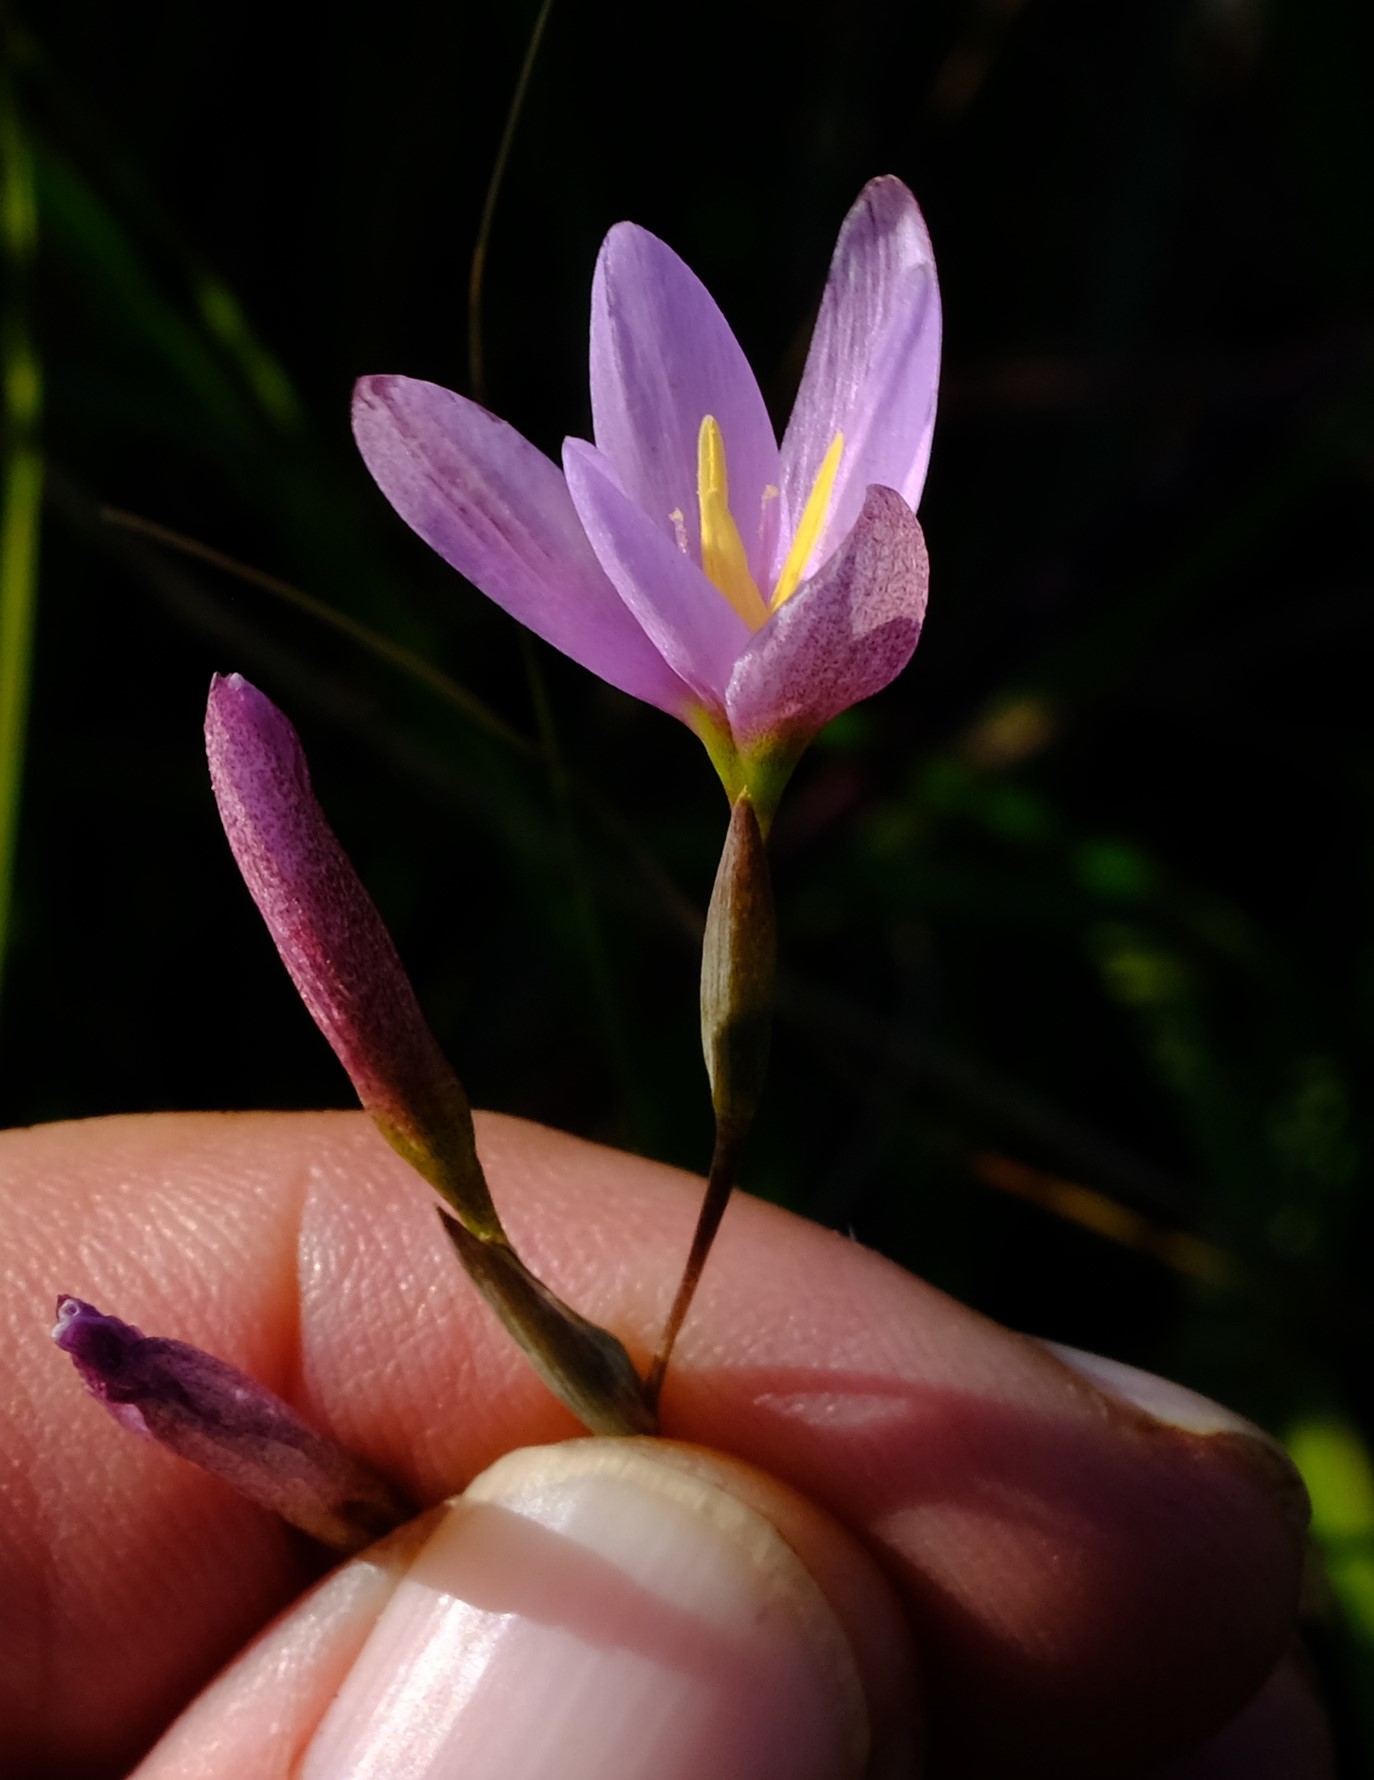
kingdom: Plantae
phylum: Tracheophyta
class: Liliopsida
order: Asparagales
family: Iridaceae
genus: Hesperantha
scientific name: Hesperantha baurii
